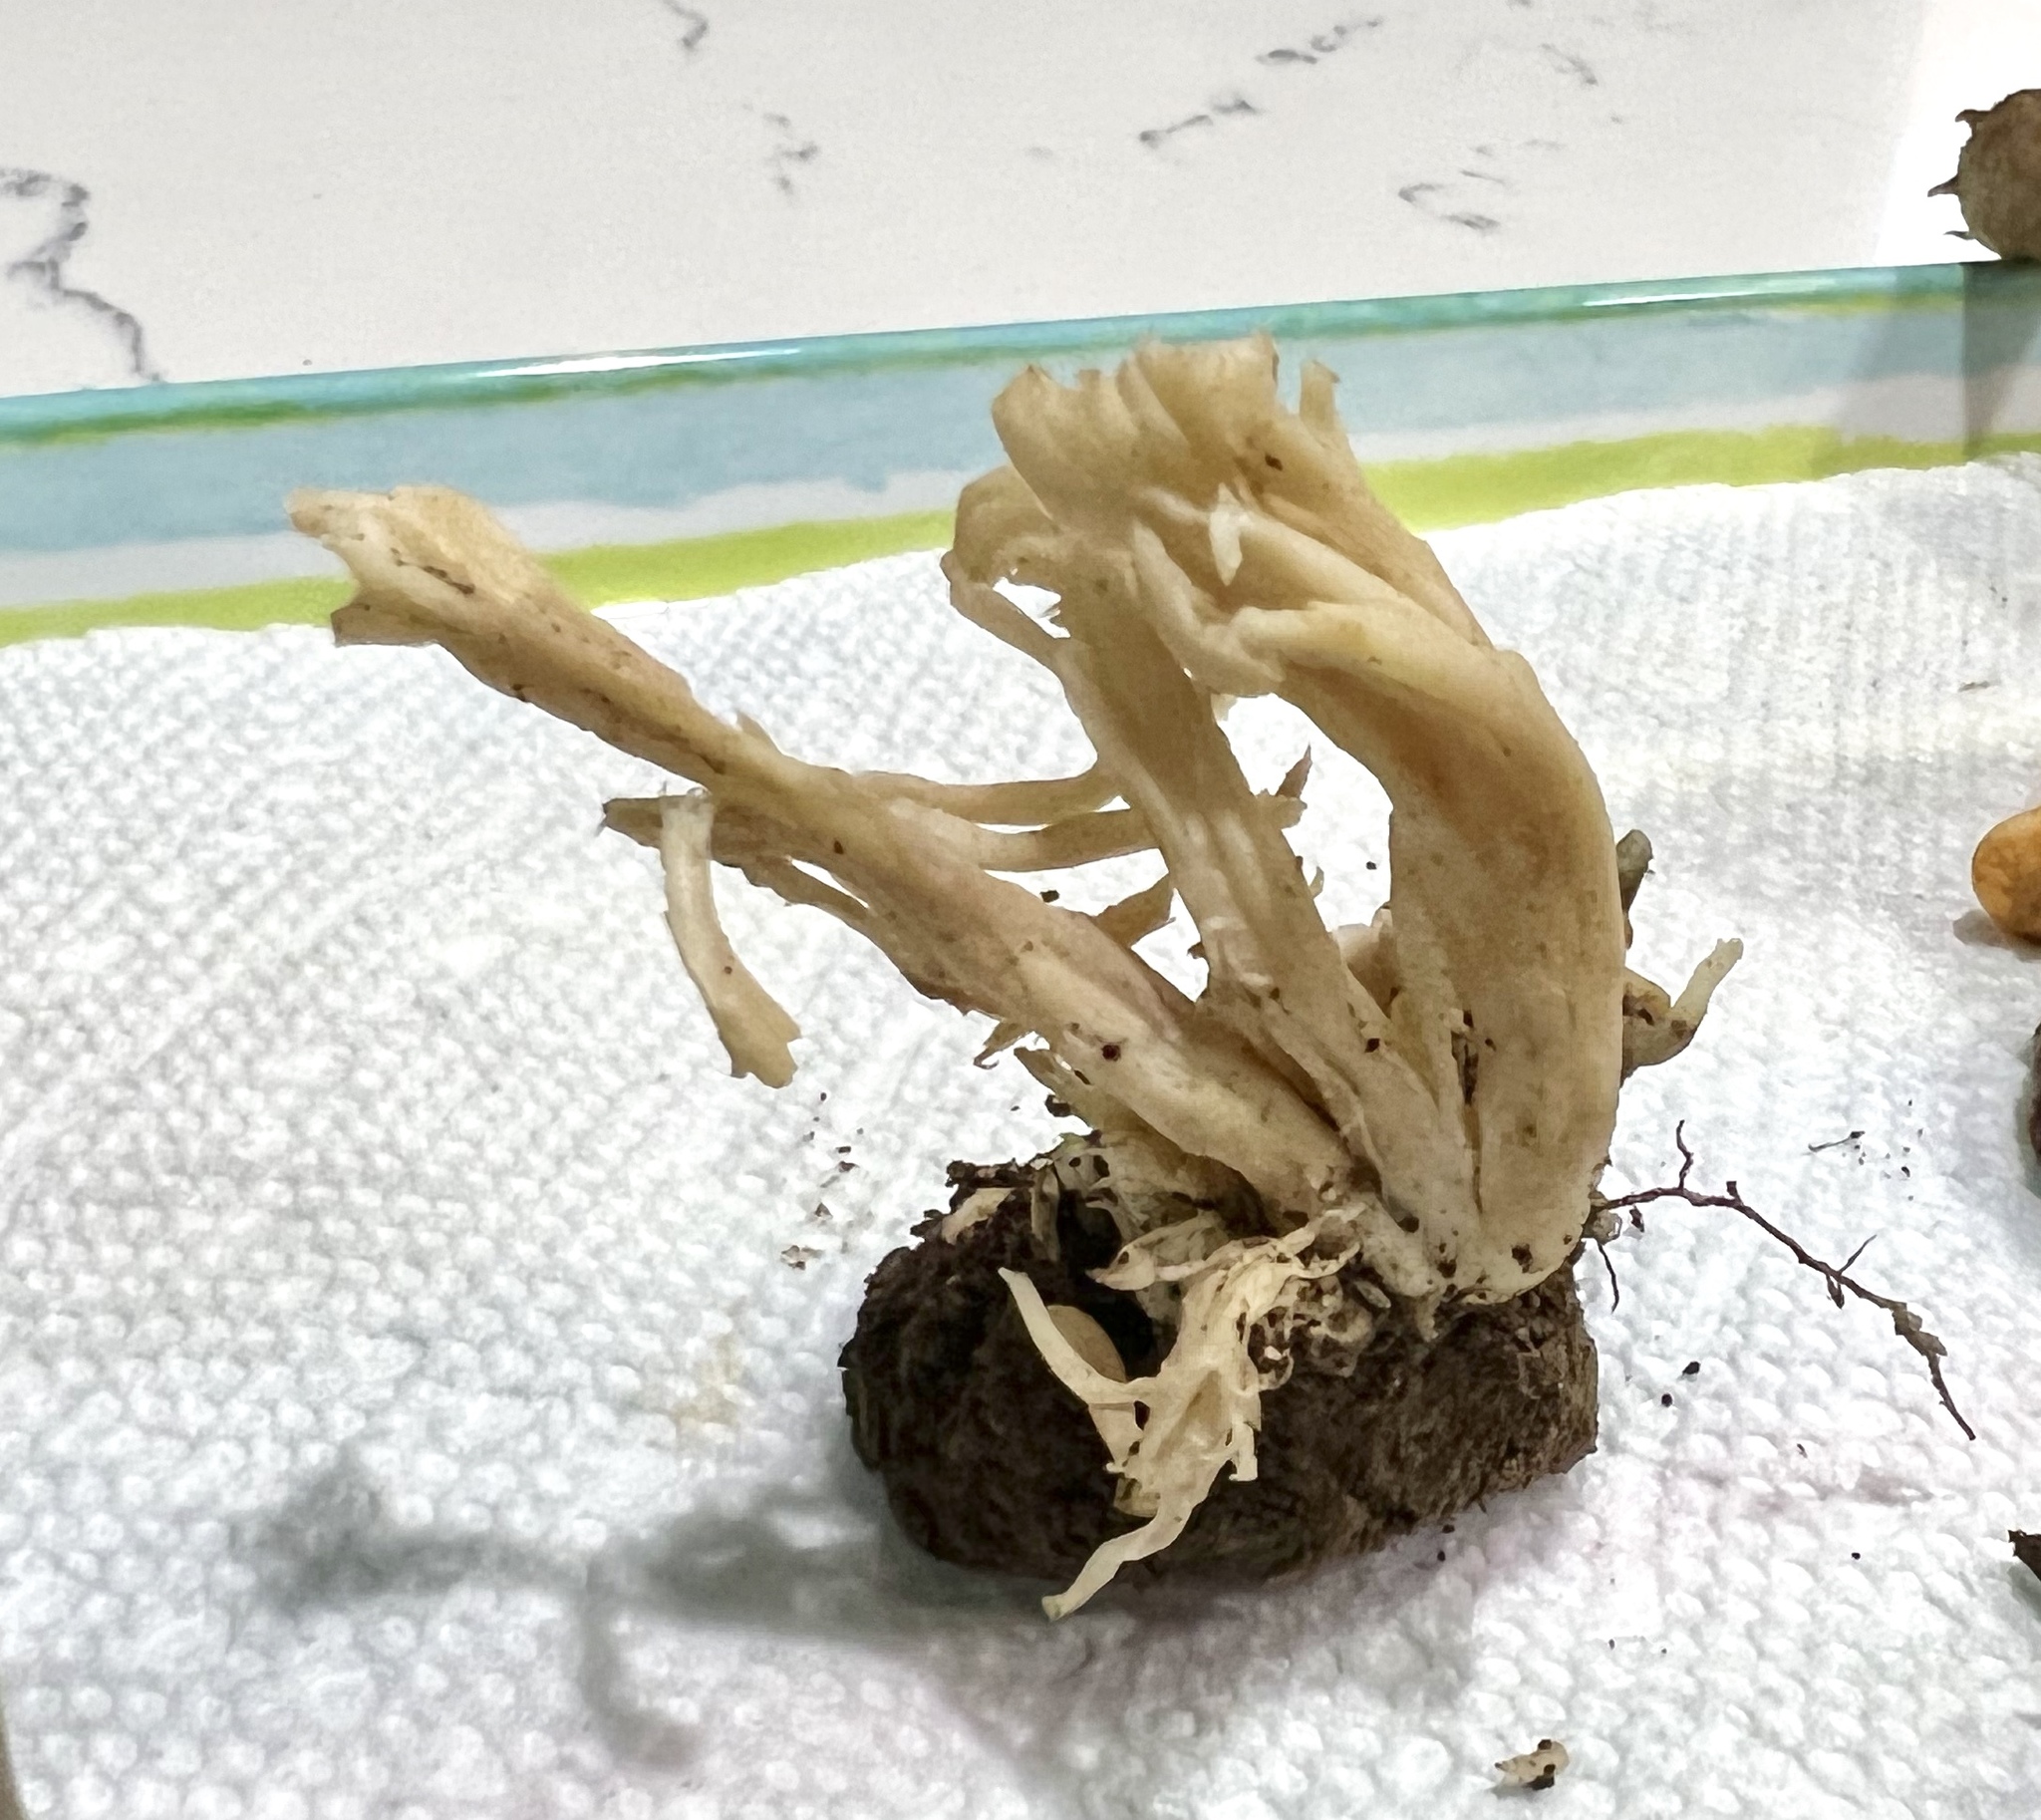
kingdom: Fungi
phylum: Basidiomycota
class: Agaricomycetes
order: Cantharellales
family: Hydnaceae
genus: Clavulina
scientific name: Clavulina coralloides
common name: Crested coral
